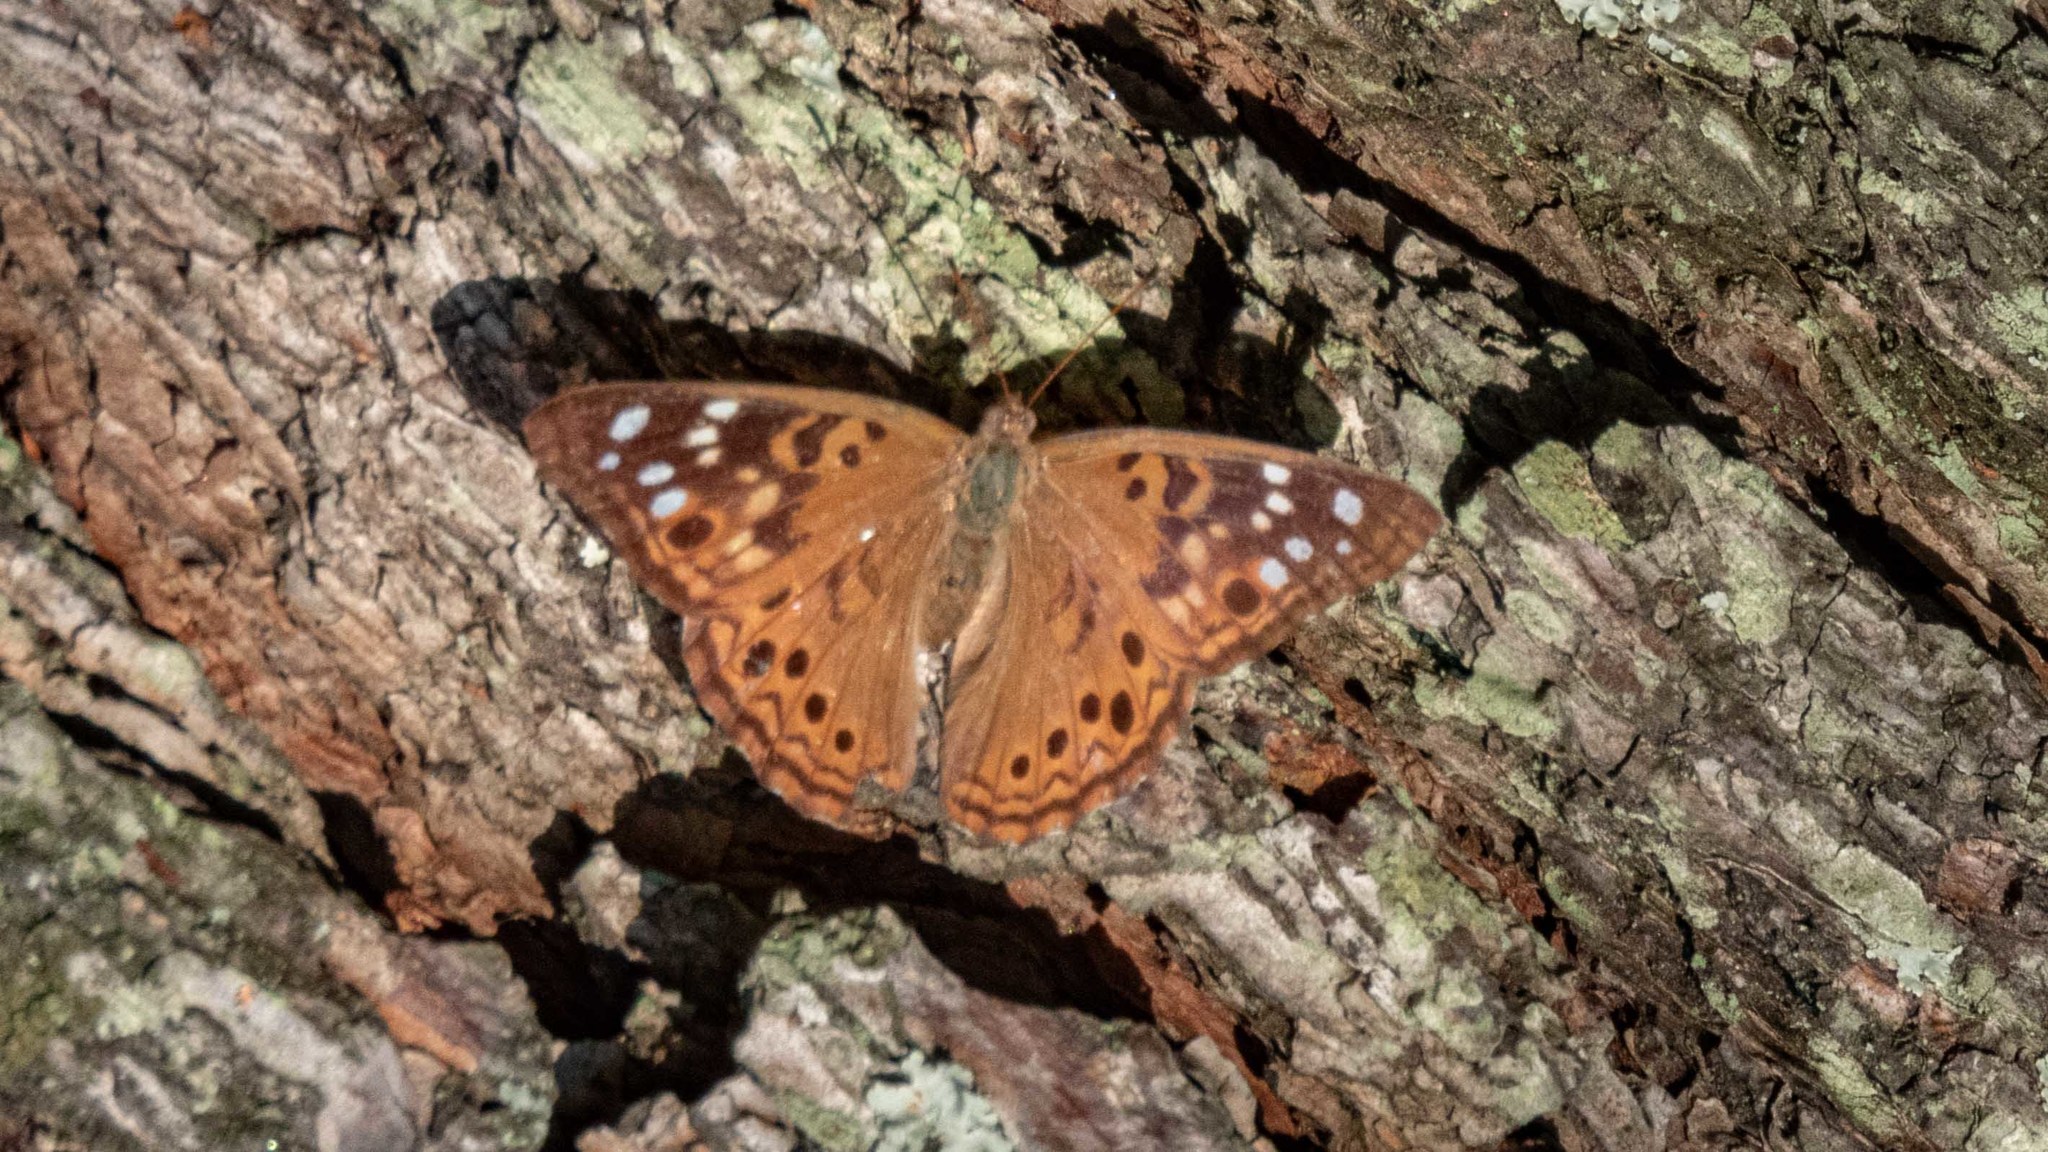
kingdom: Animalia
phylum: Arthropoda
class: Insecta
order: Lepidoptera
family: Nymphalidae
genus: Asterocampa
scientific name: Asterocampa celtis
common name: Hackberry emperor
